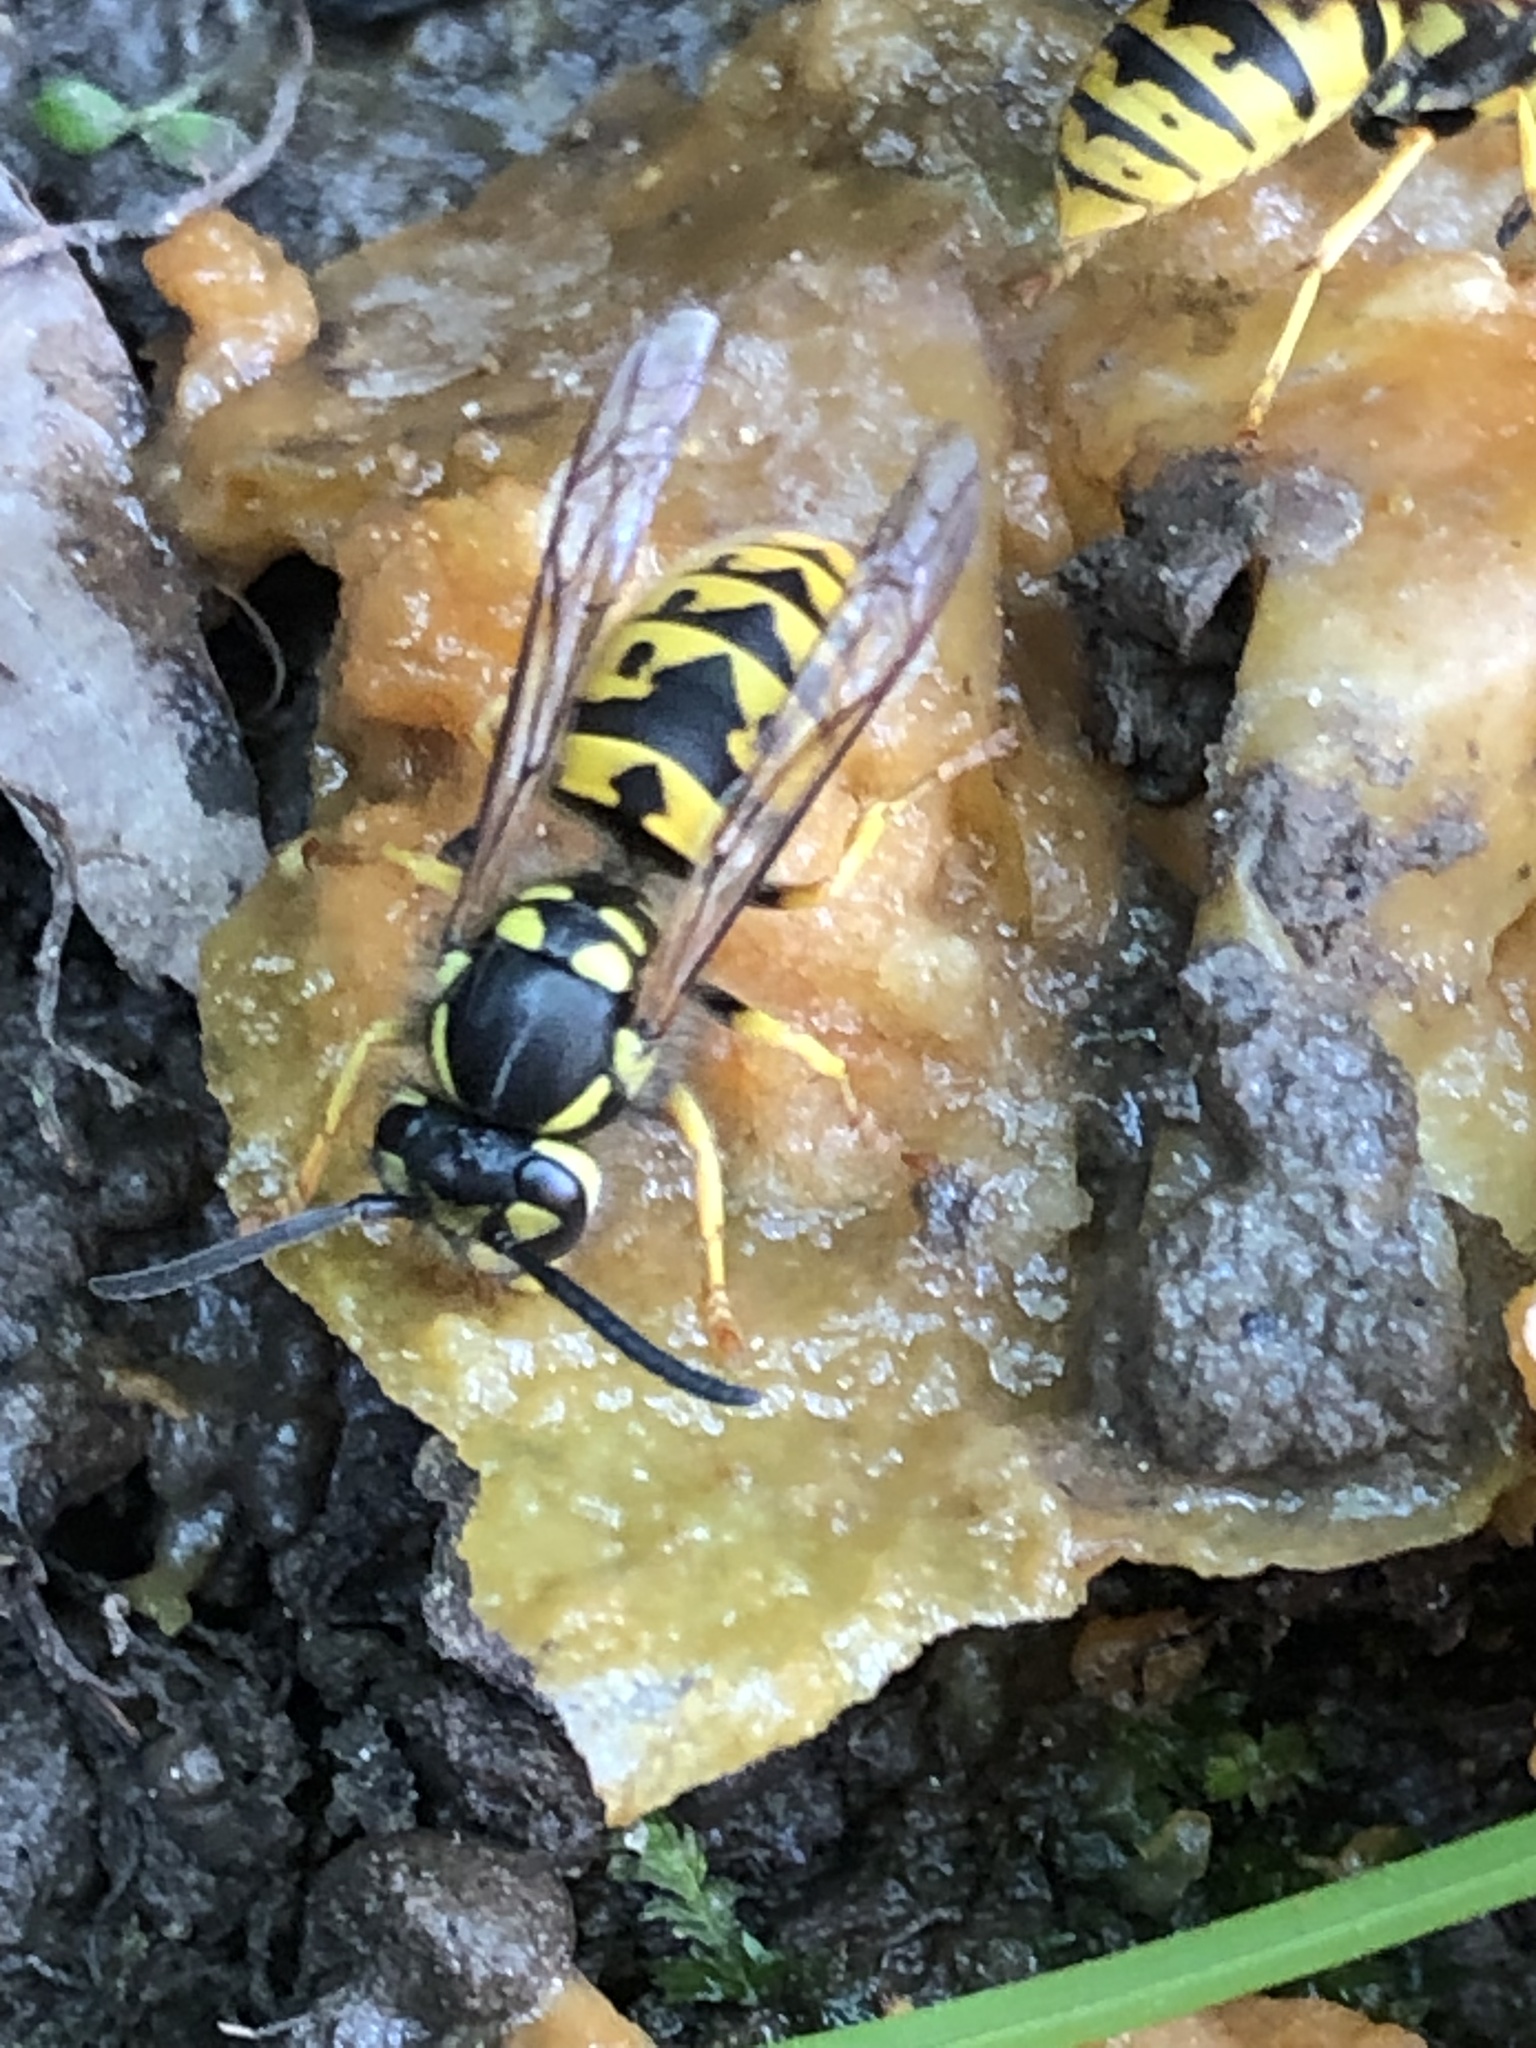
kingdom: Animalia
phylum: Arthropoda
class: Insecta
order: Hymenoptera
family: Vespidae
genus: Vespula
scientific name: Vespula germanica
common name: German wasp
